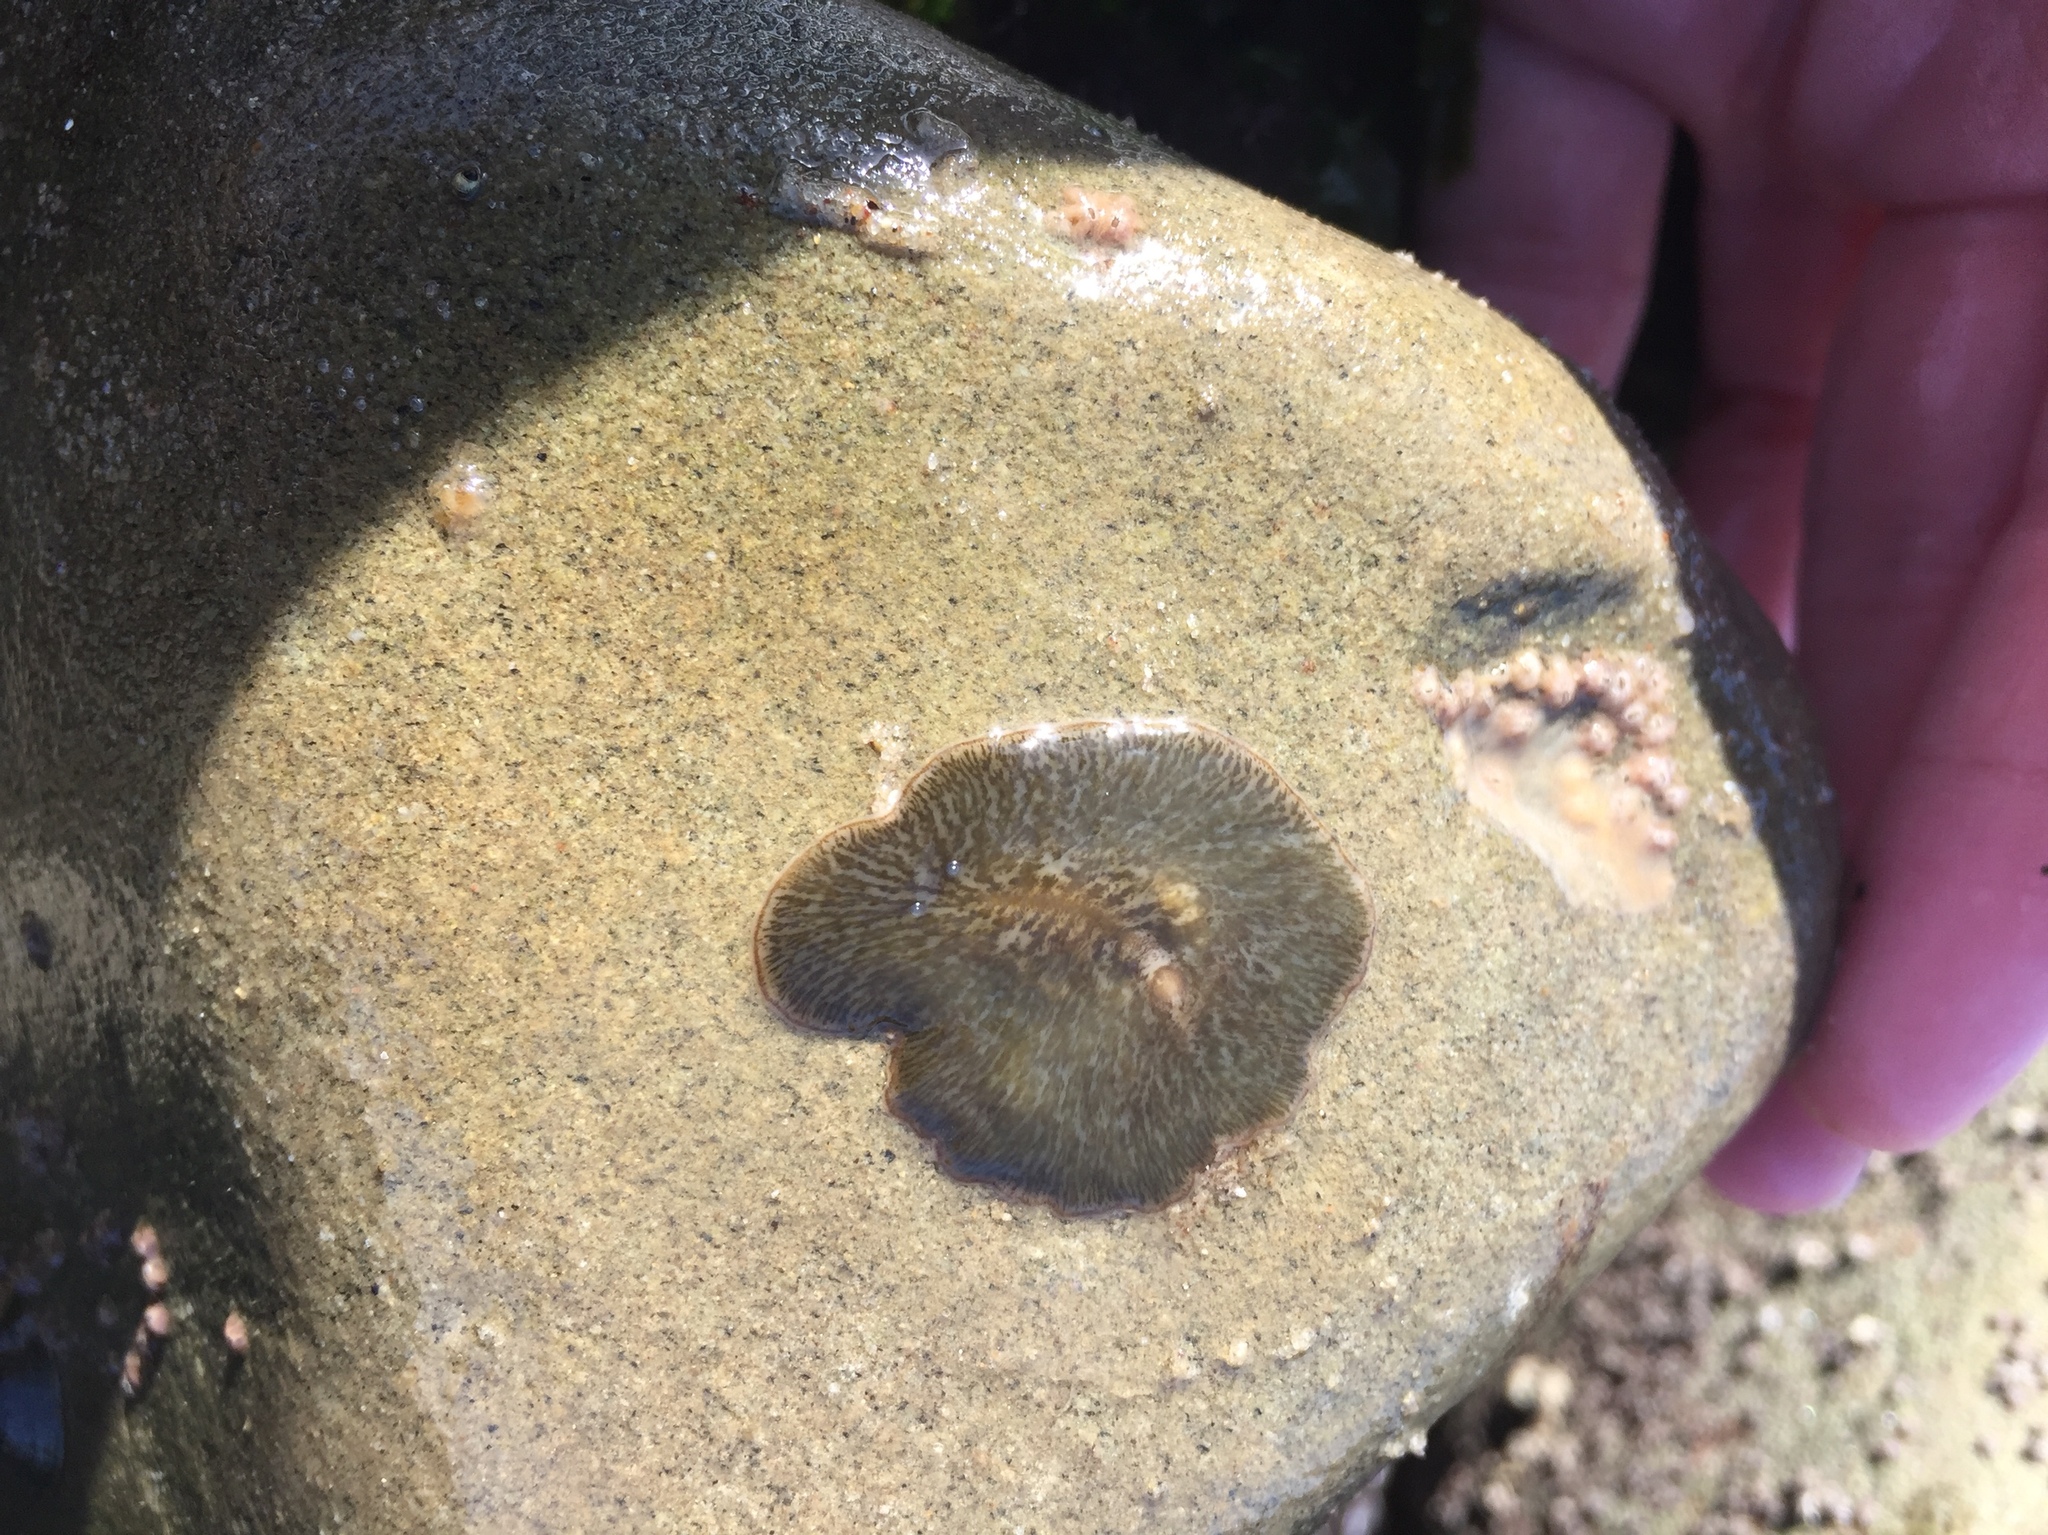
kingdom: Animalia
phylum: Platyhelminthes
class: Turbellaria
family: Cryptocelidae
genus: Hylocelis
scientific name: Hylocelis californica
